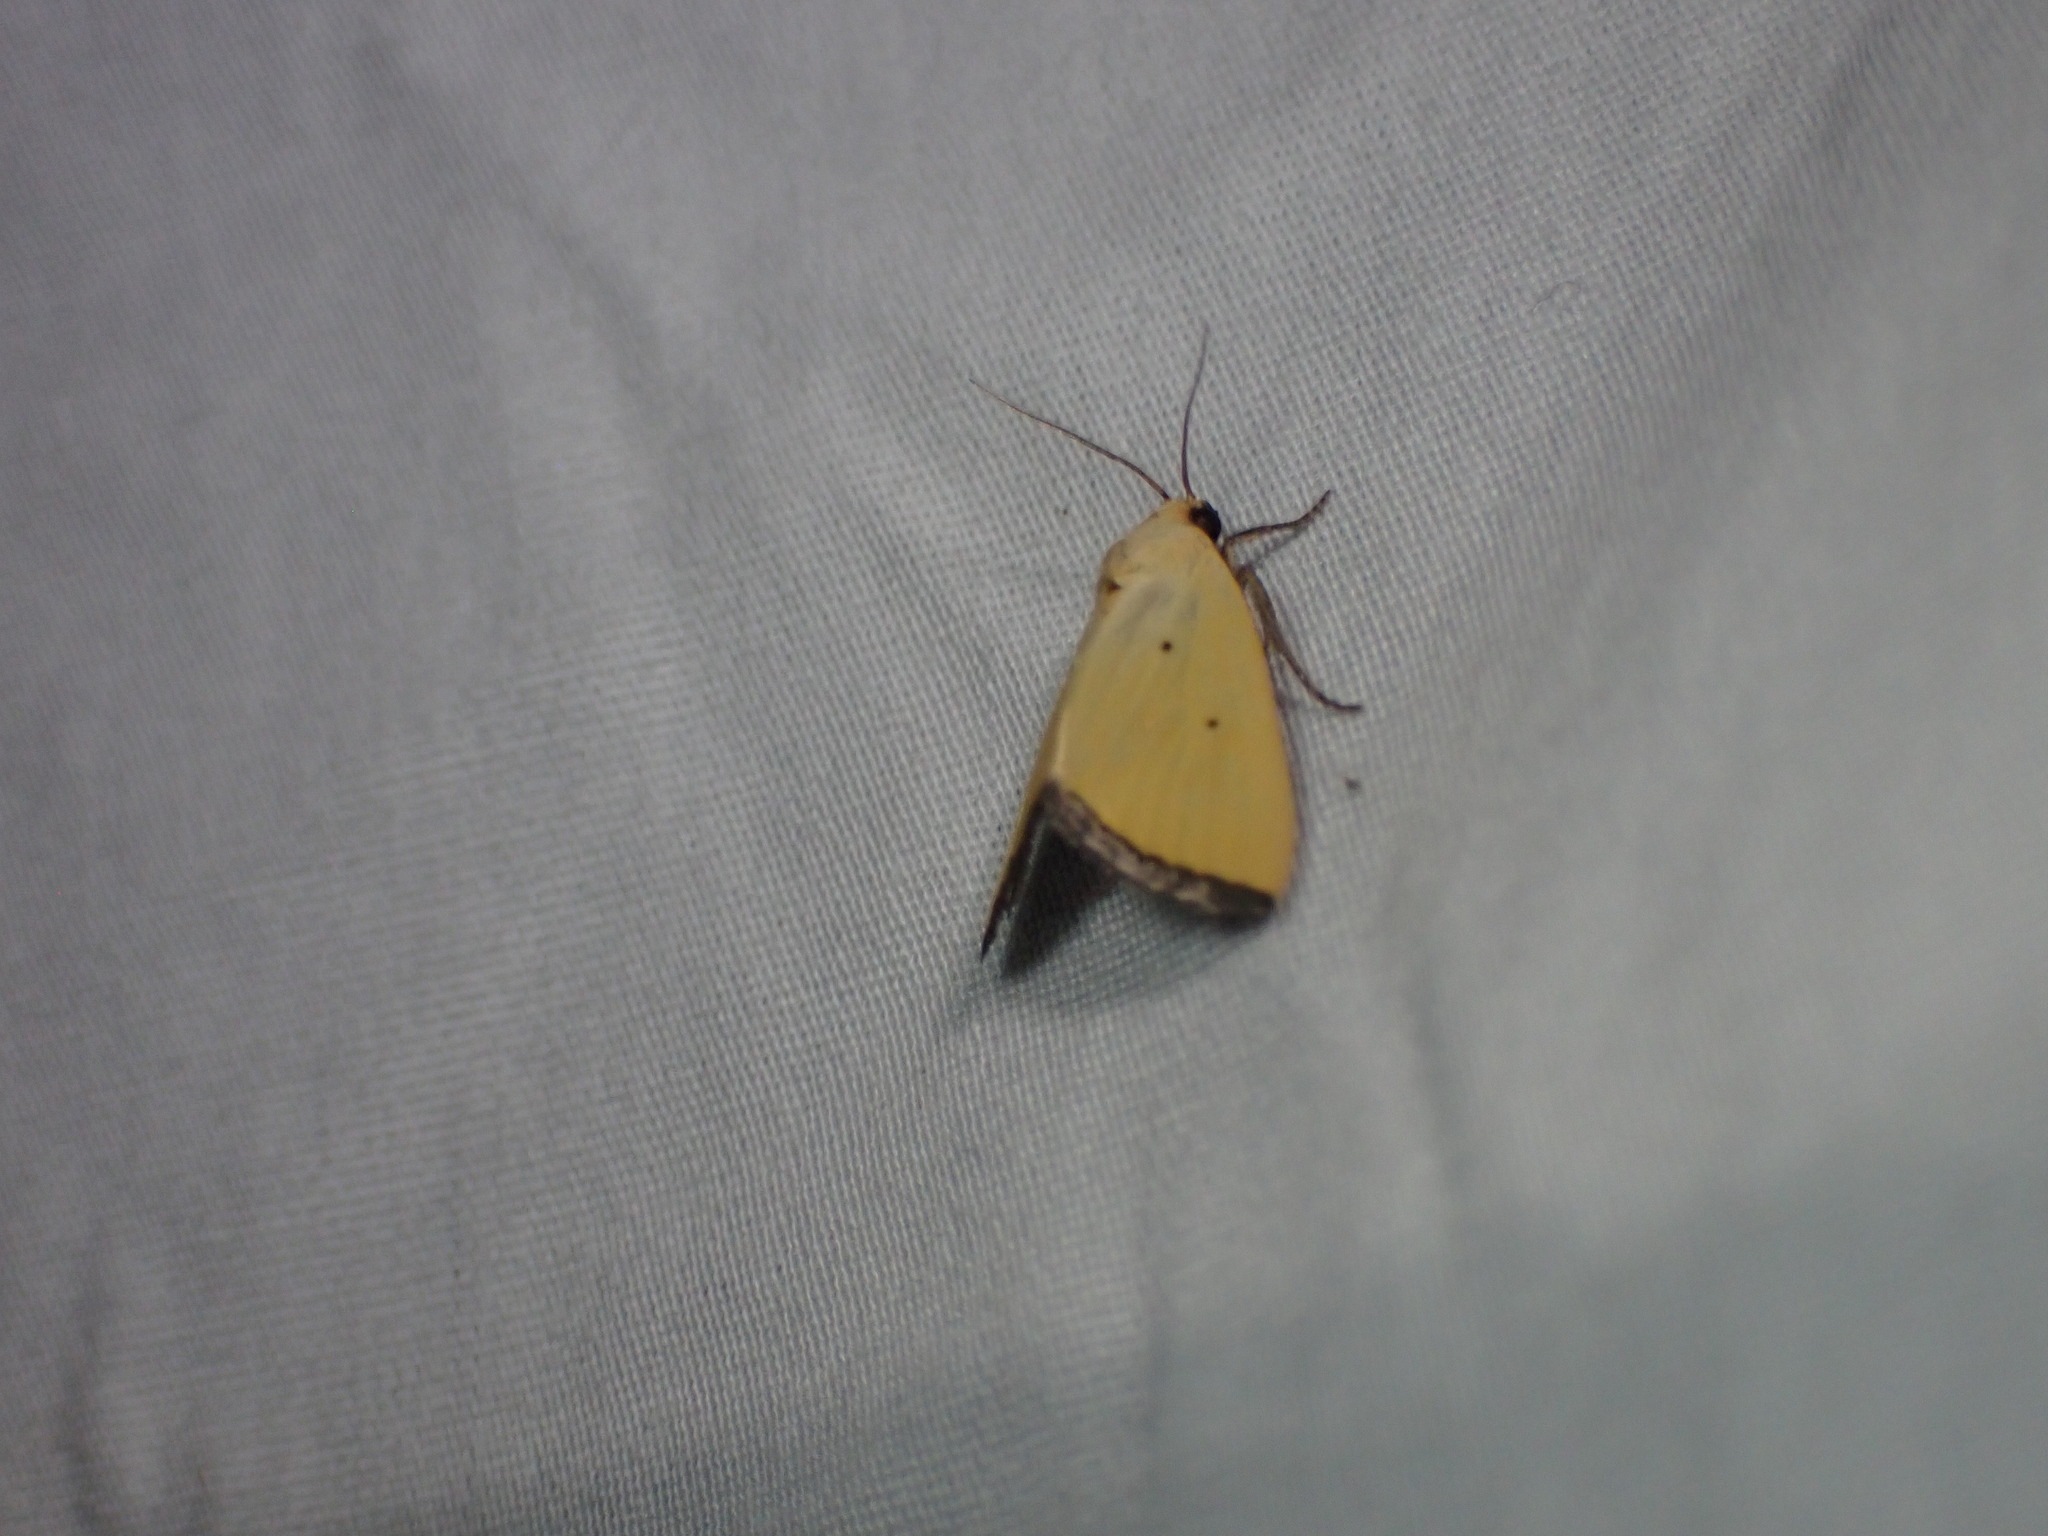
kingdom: Animalia
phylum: Arthropoda
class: Insecta
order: Lepidoptera
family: Noctuidae
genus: Marimatha
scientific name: Marimatha nigrofimbria
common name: Black-bordered lemon moth
